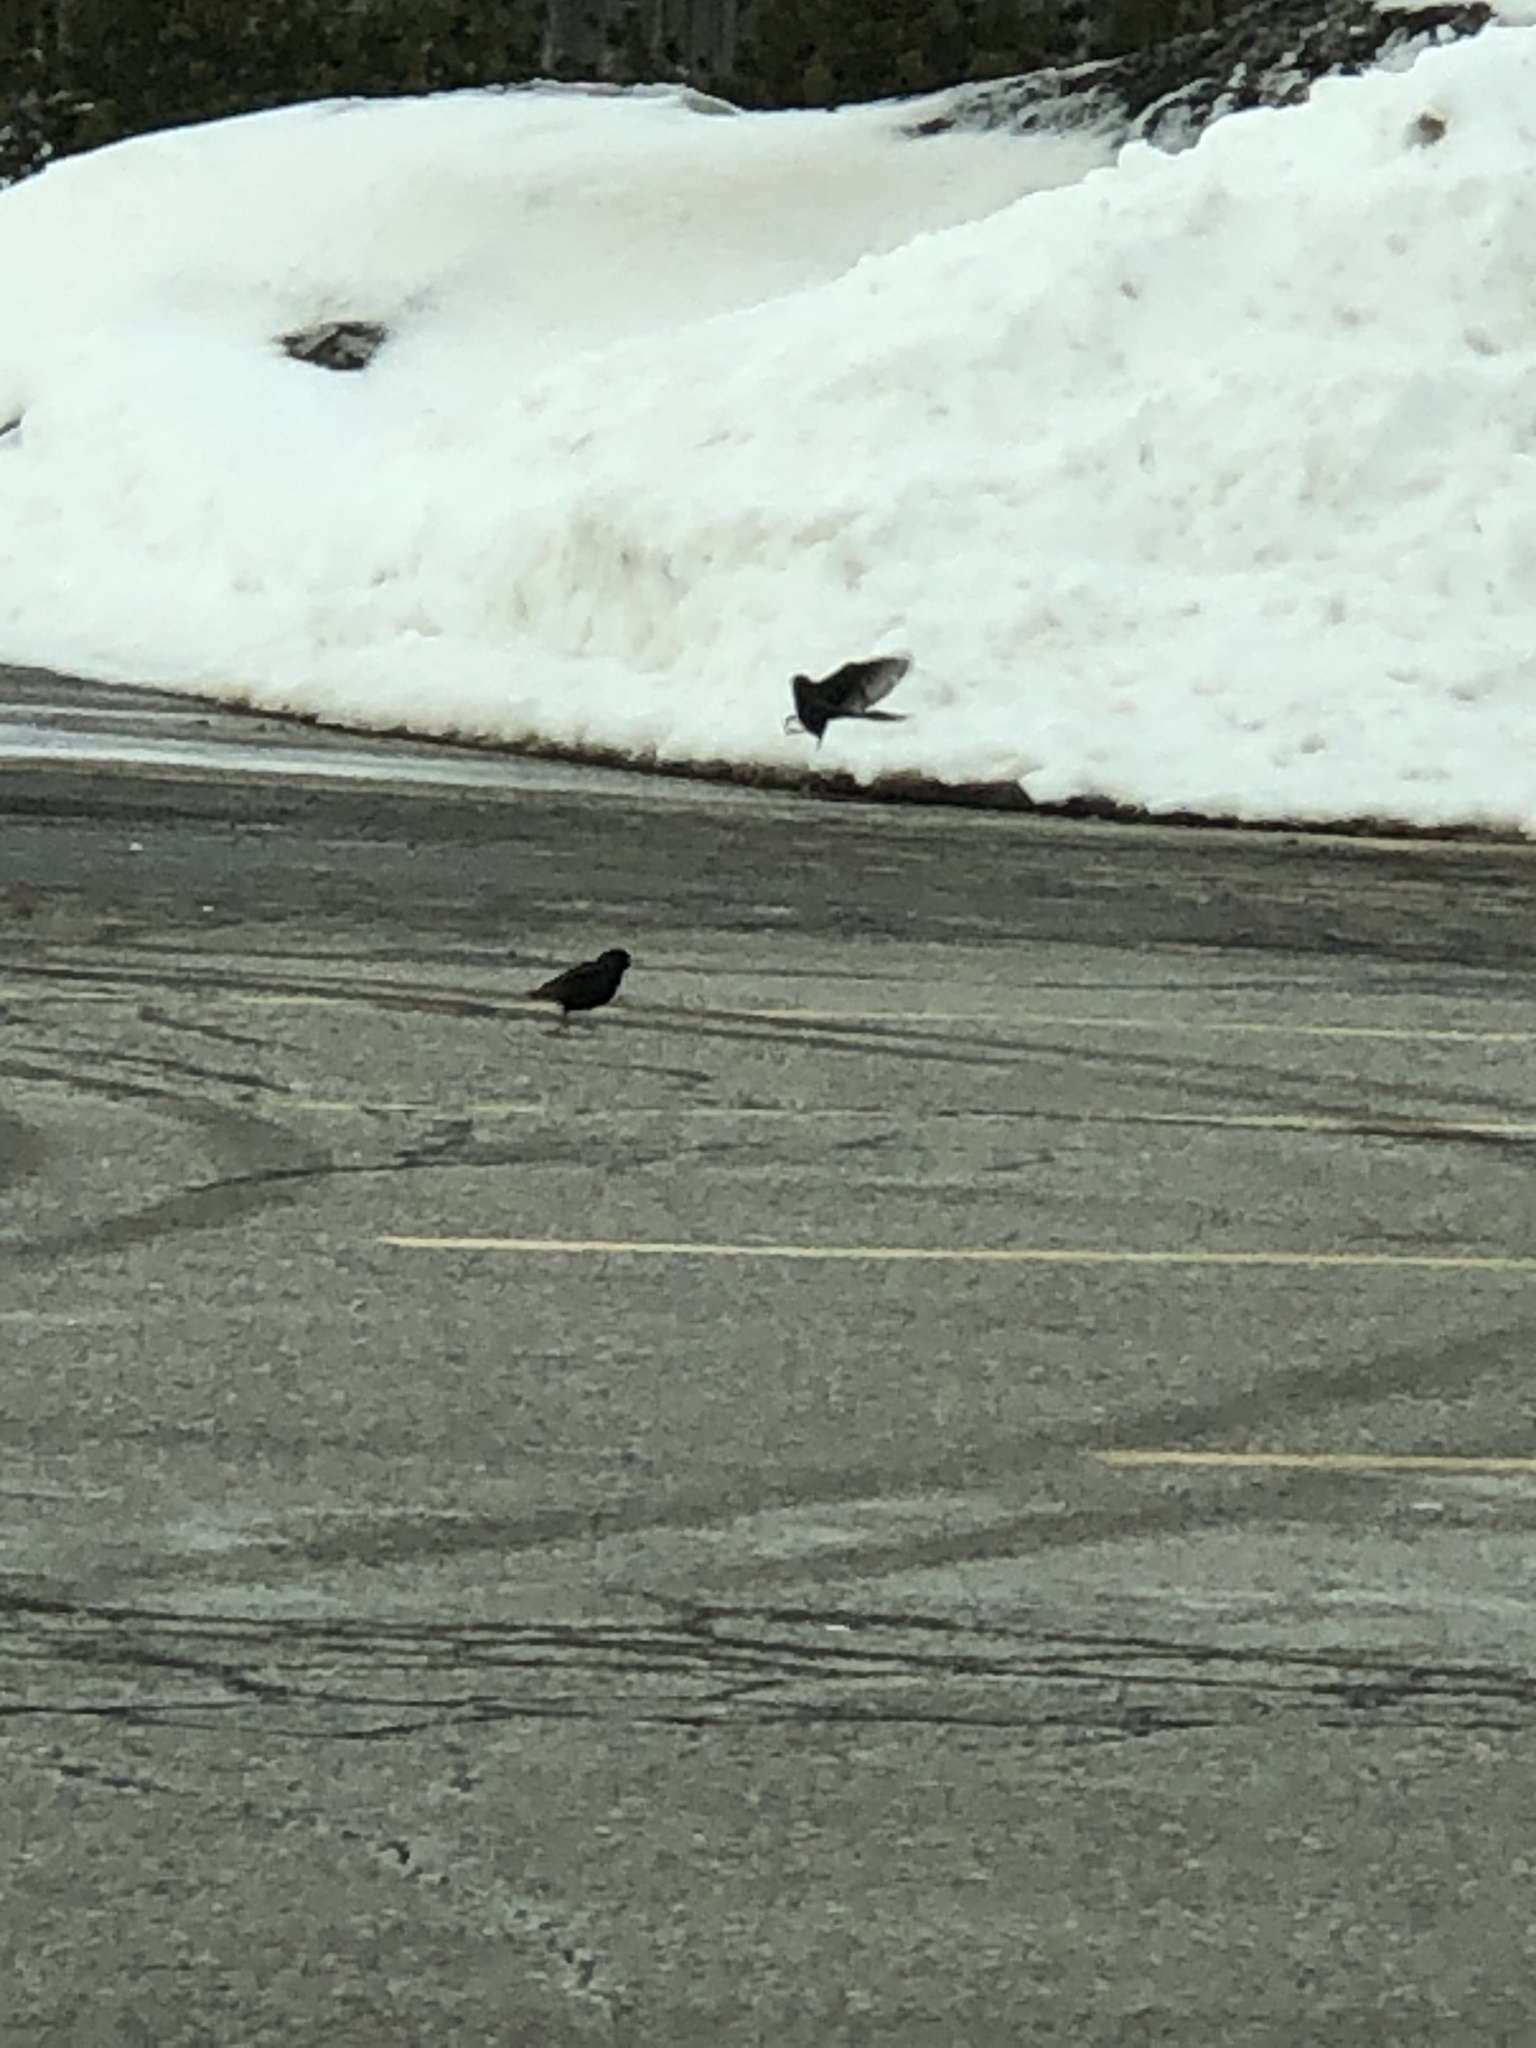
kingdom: Animalia
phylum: Chordata
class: Aves
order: Passeriformes
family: Sturnidae
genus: Sturnus
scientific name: Sturnus vulgaris
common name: Common starling
